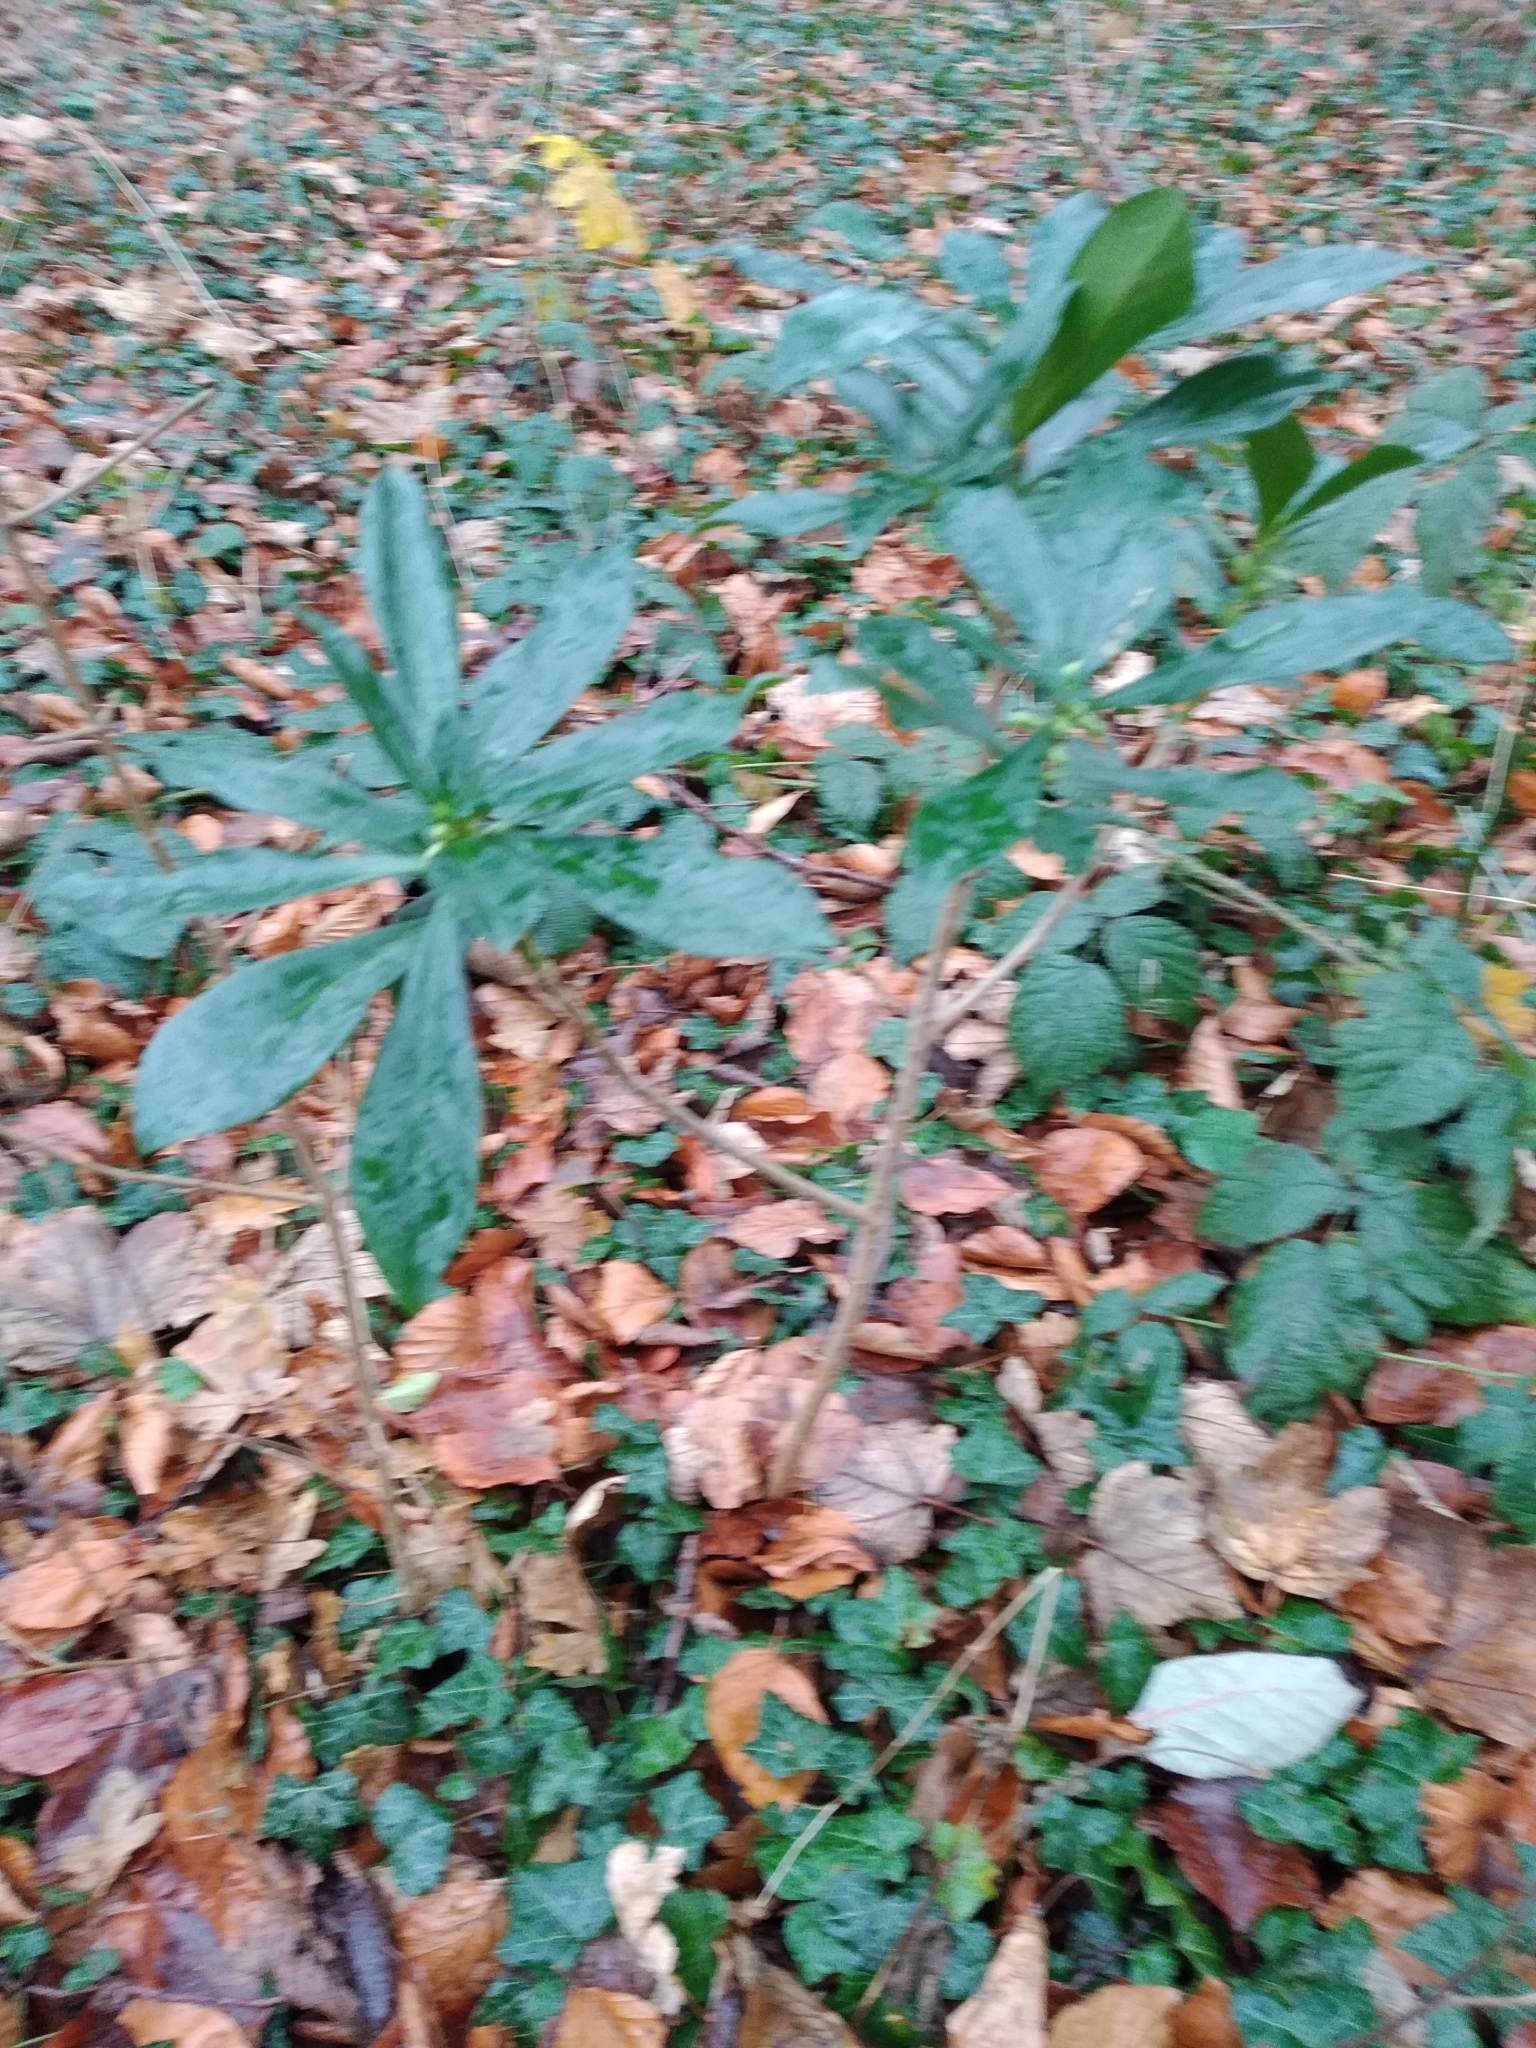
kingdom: Plantae
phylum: Tracheophyta
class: Magnoliopsida
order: Malvales
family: Thymelaeaceae
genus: Daphne
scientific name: Daphne laureola
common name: Spurge-laurel
